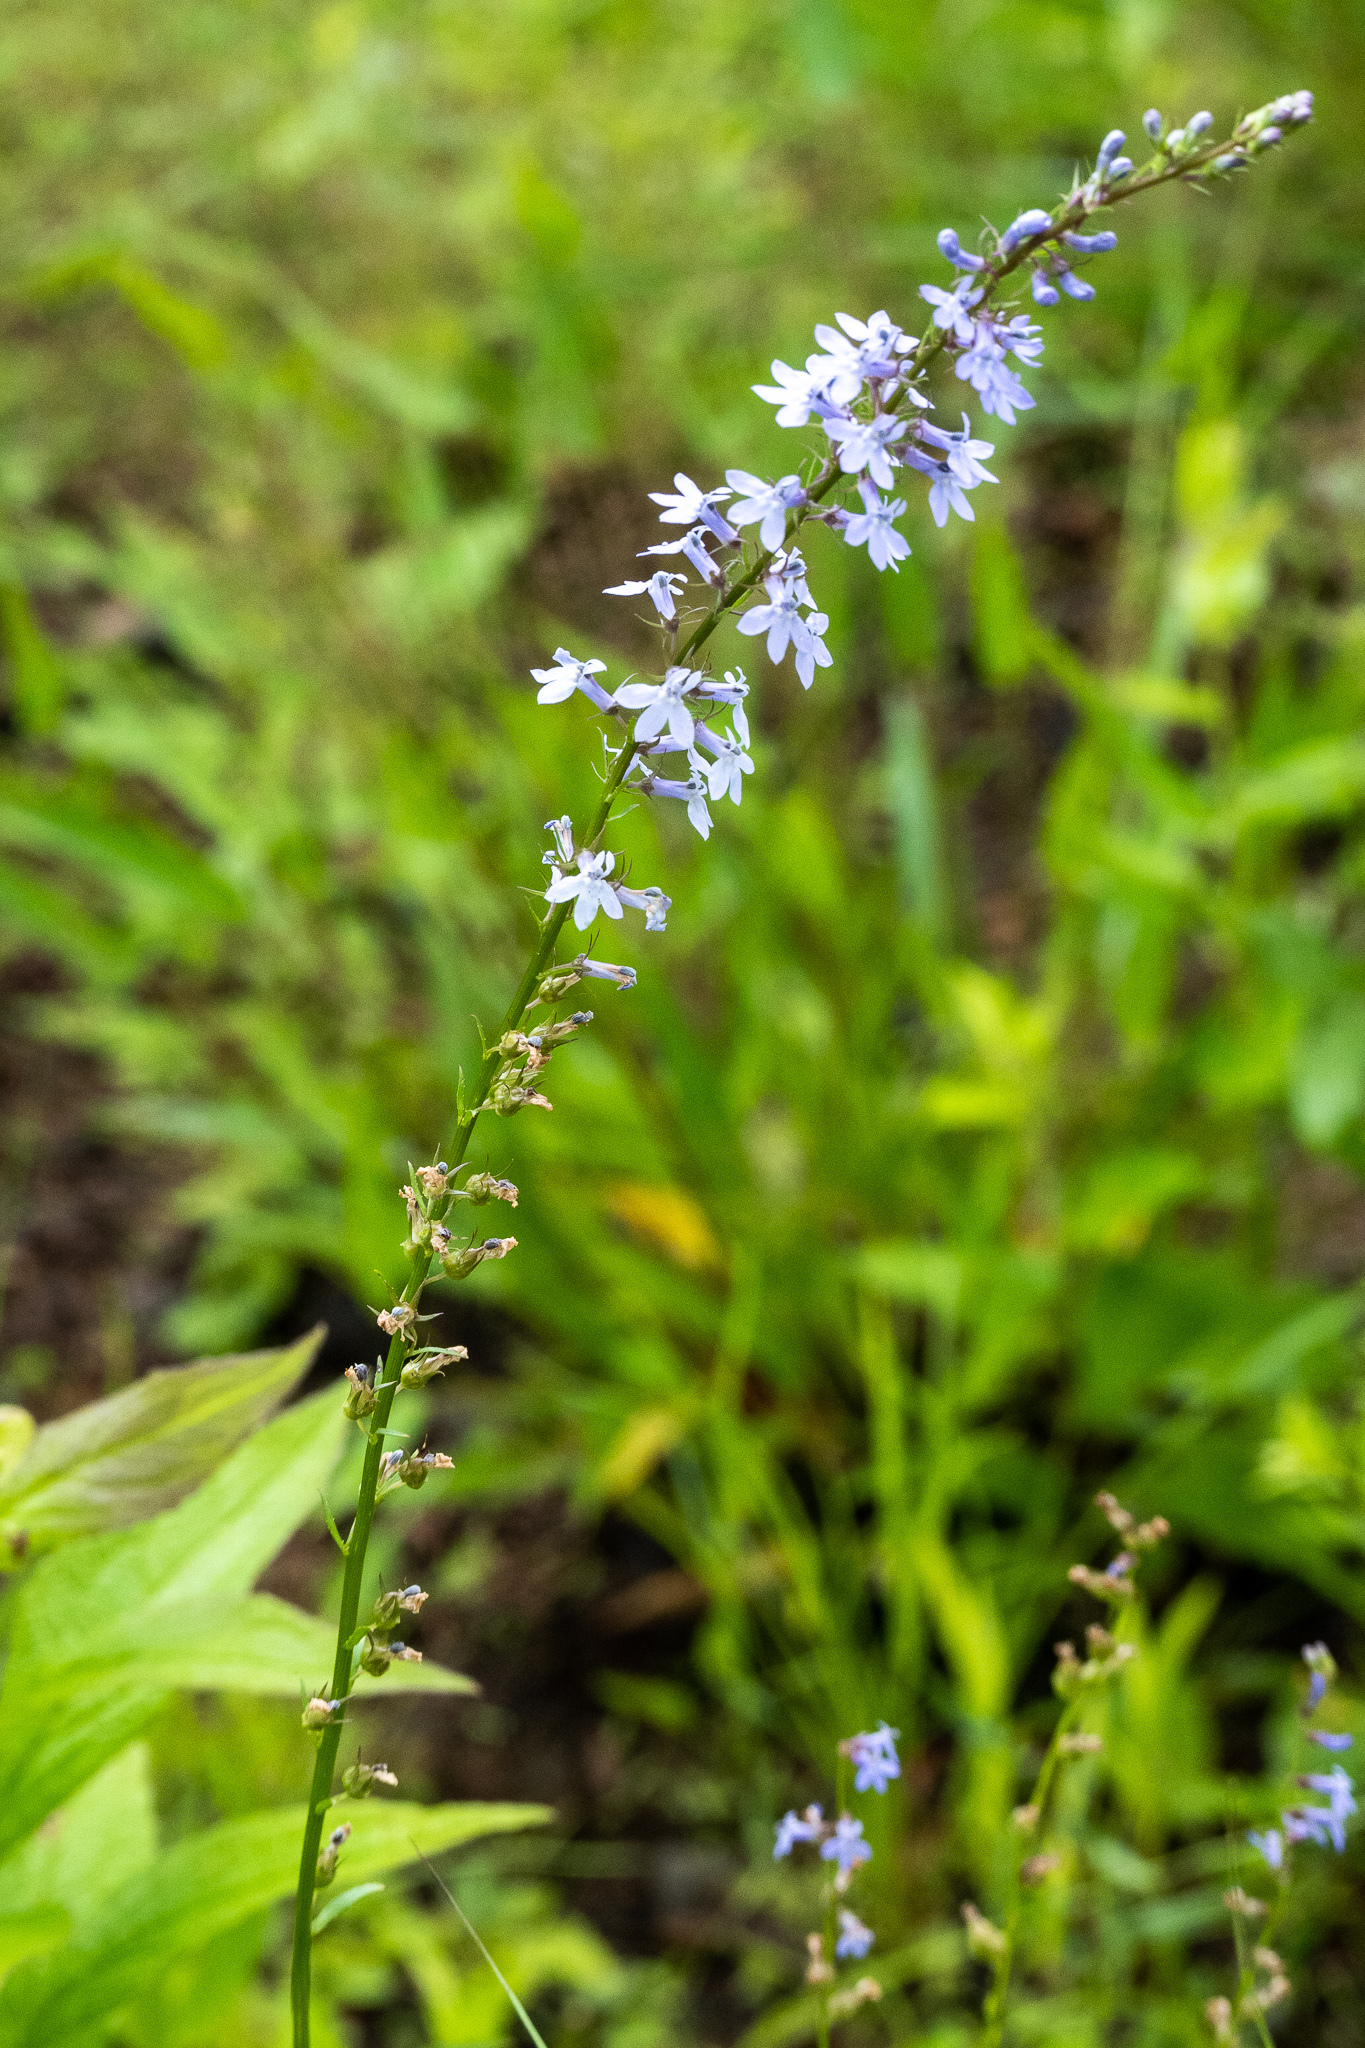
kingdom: Plantae
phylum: Tracheophyta
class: Magnoliopsida
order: Asterales
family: Campanulaceae
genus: Lobelia
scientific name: Lobelia spicata
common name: Pale-spike lobelia
